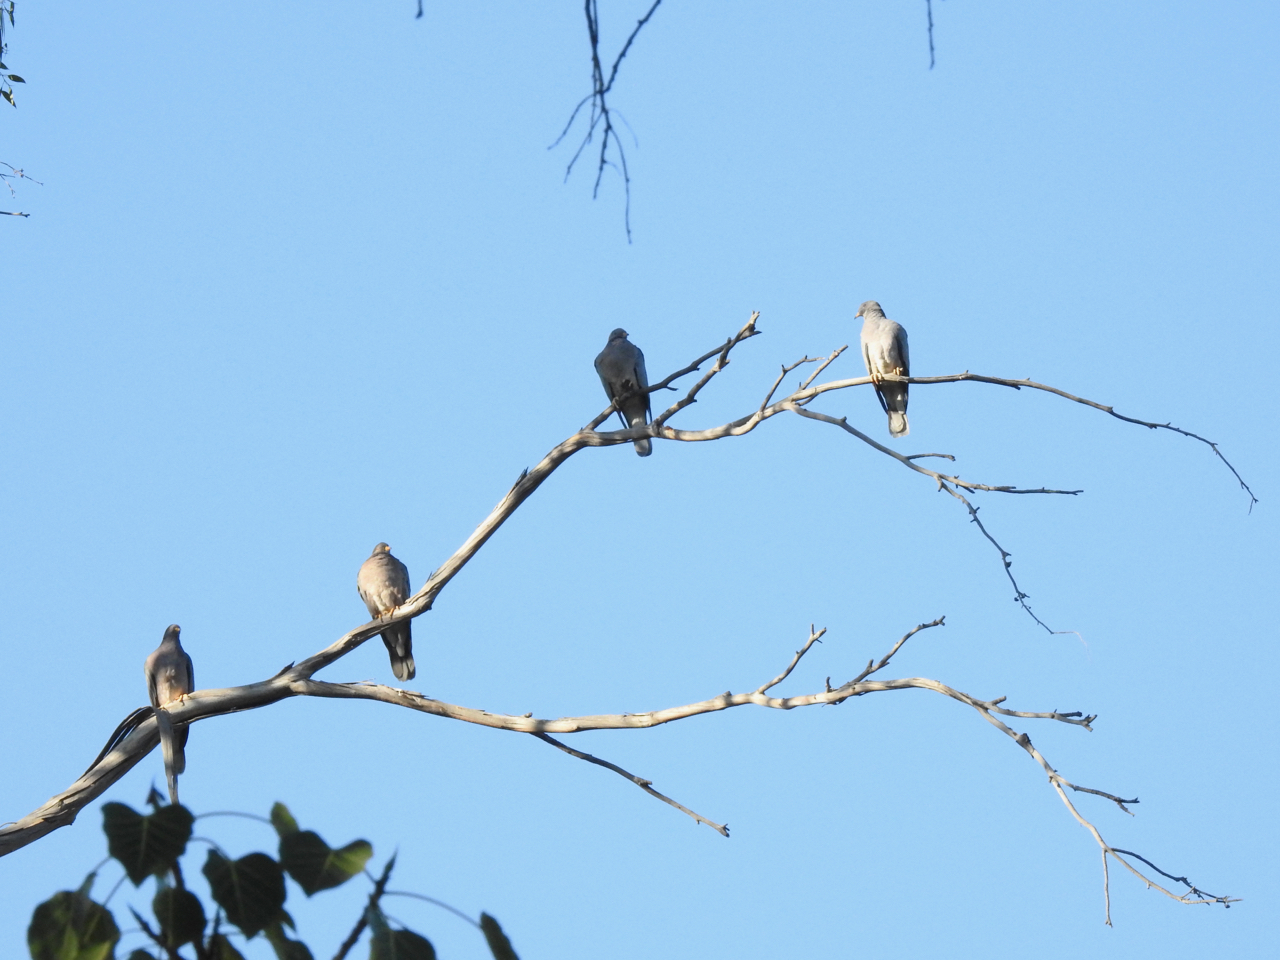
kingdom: Animalia
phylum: Chordata
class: Aves
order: Columbiformes
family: Columbidae
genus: Patagioenas
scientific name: Patagioenas fasciata
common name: Band-tailed pigeon
